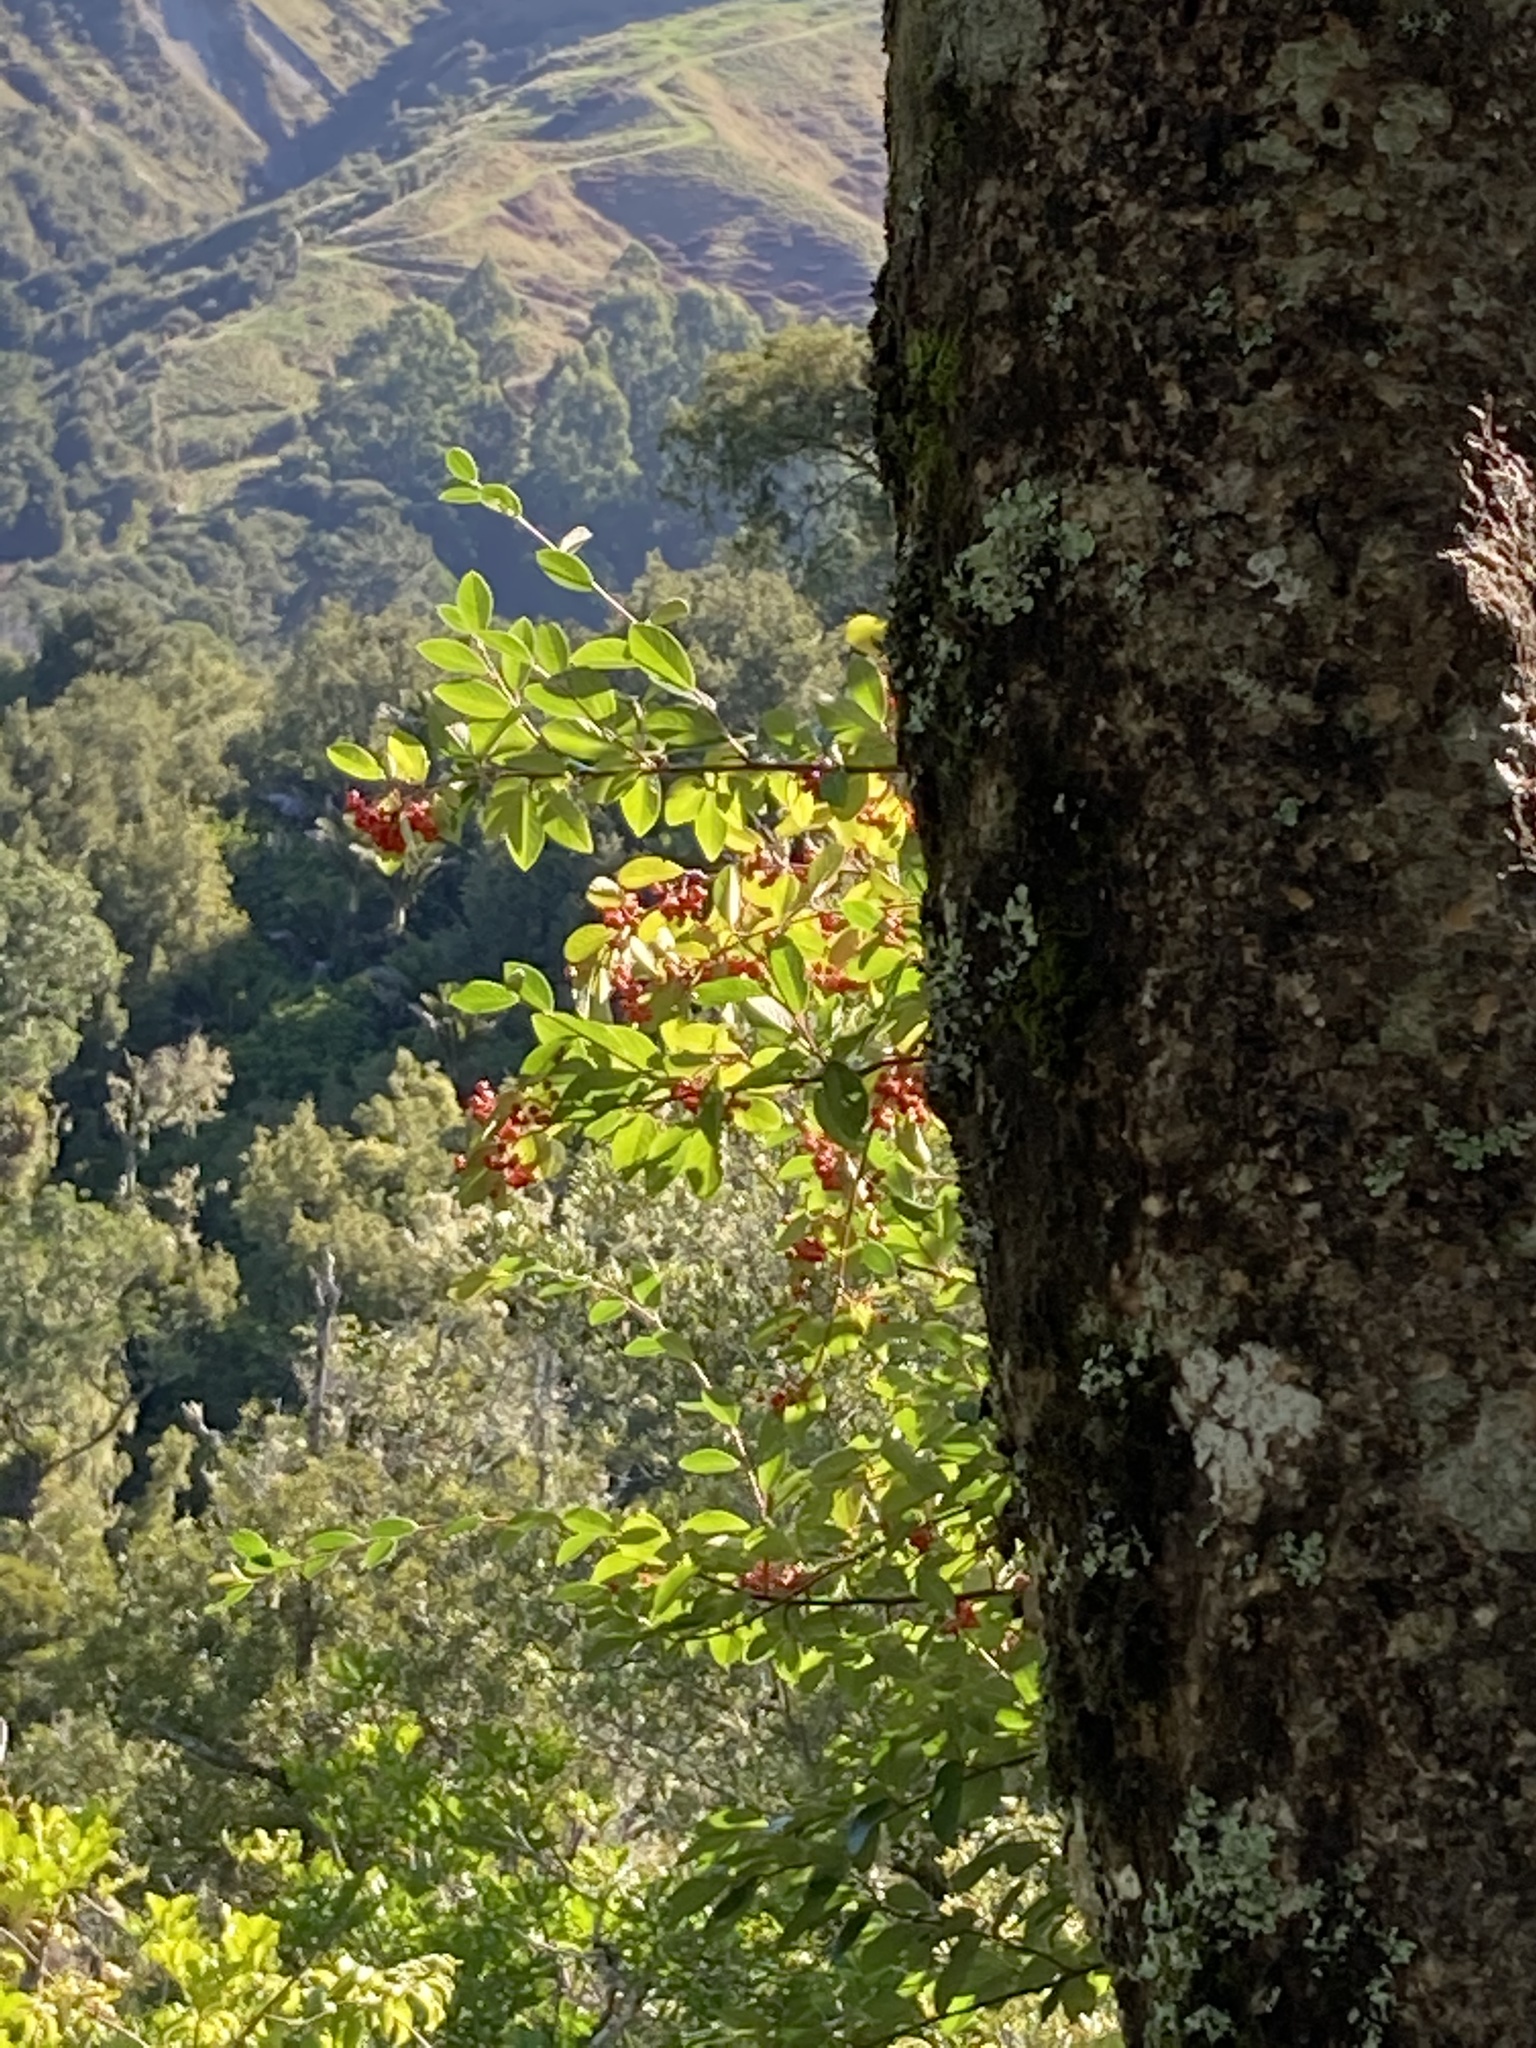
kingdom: Plantae
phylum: Tracheophyta
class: Magnoliopsida
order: Rosales
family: Rosaceae
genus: Cotoneaster
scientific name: Cotoneaster glaucophyllus
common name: Glaucous cotoneaster
